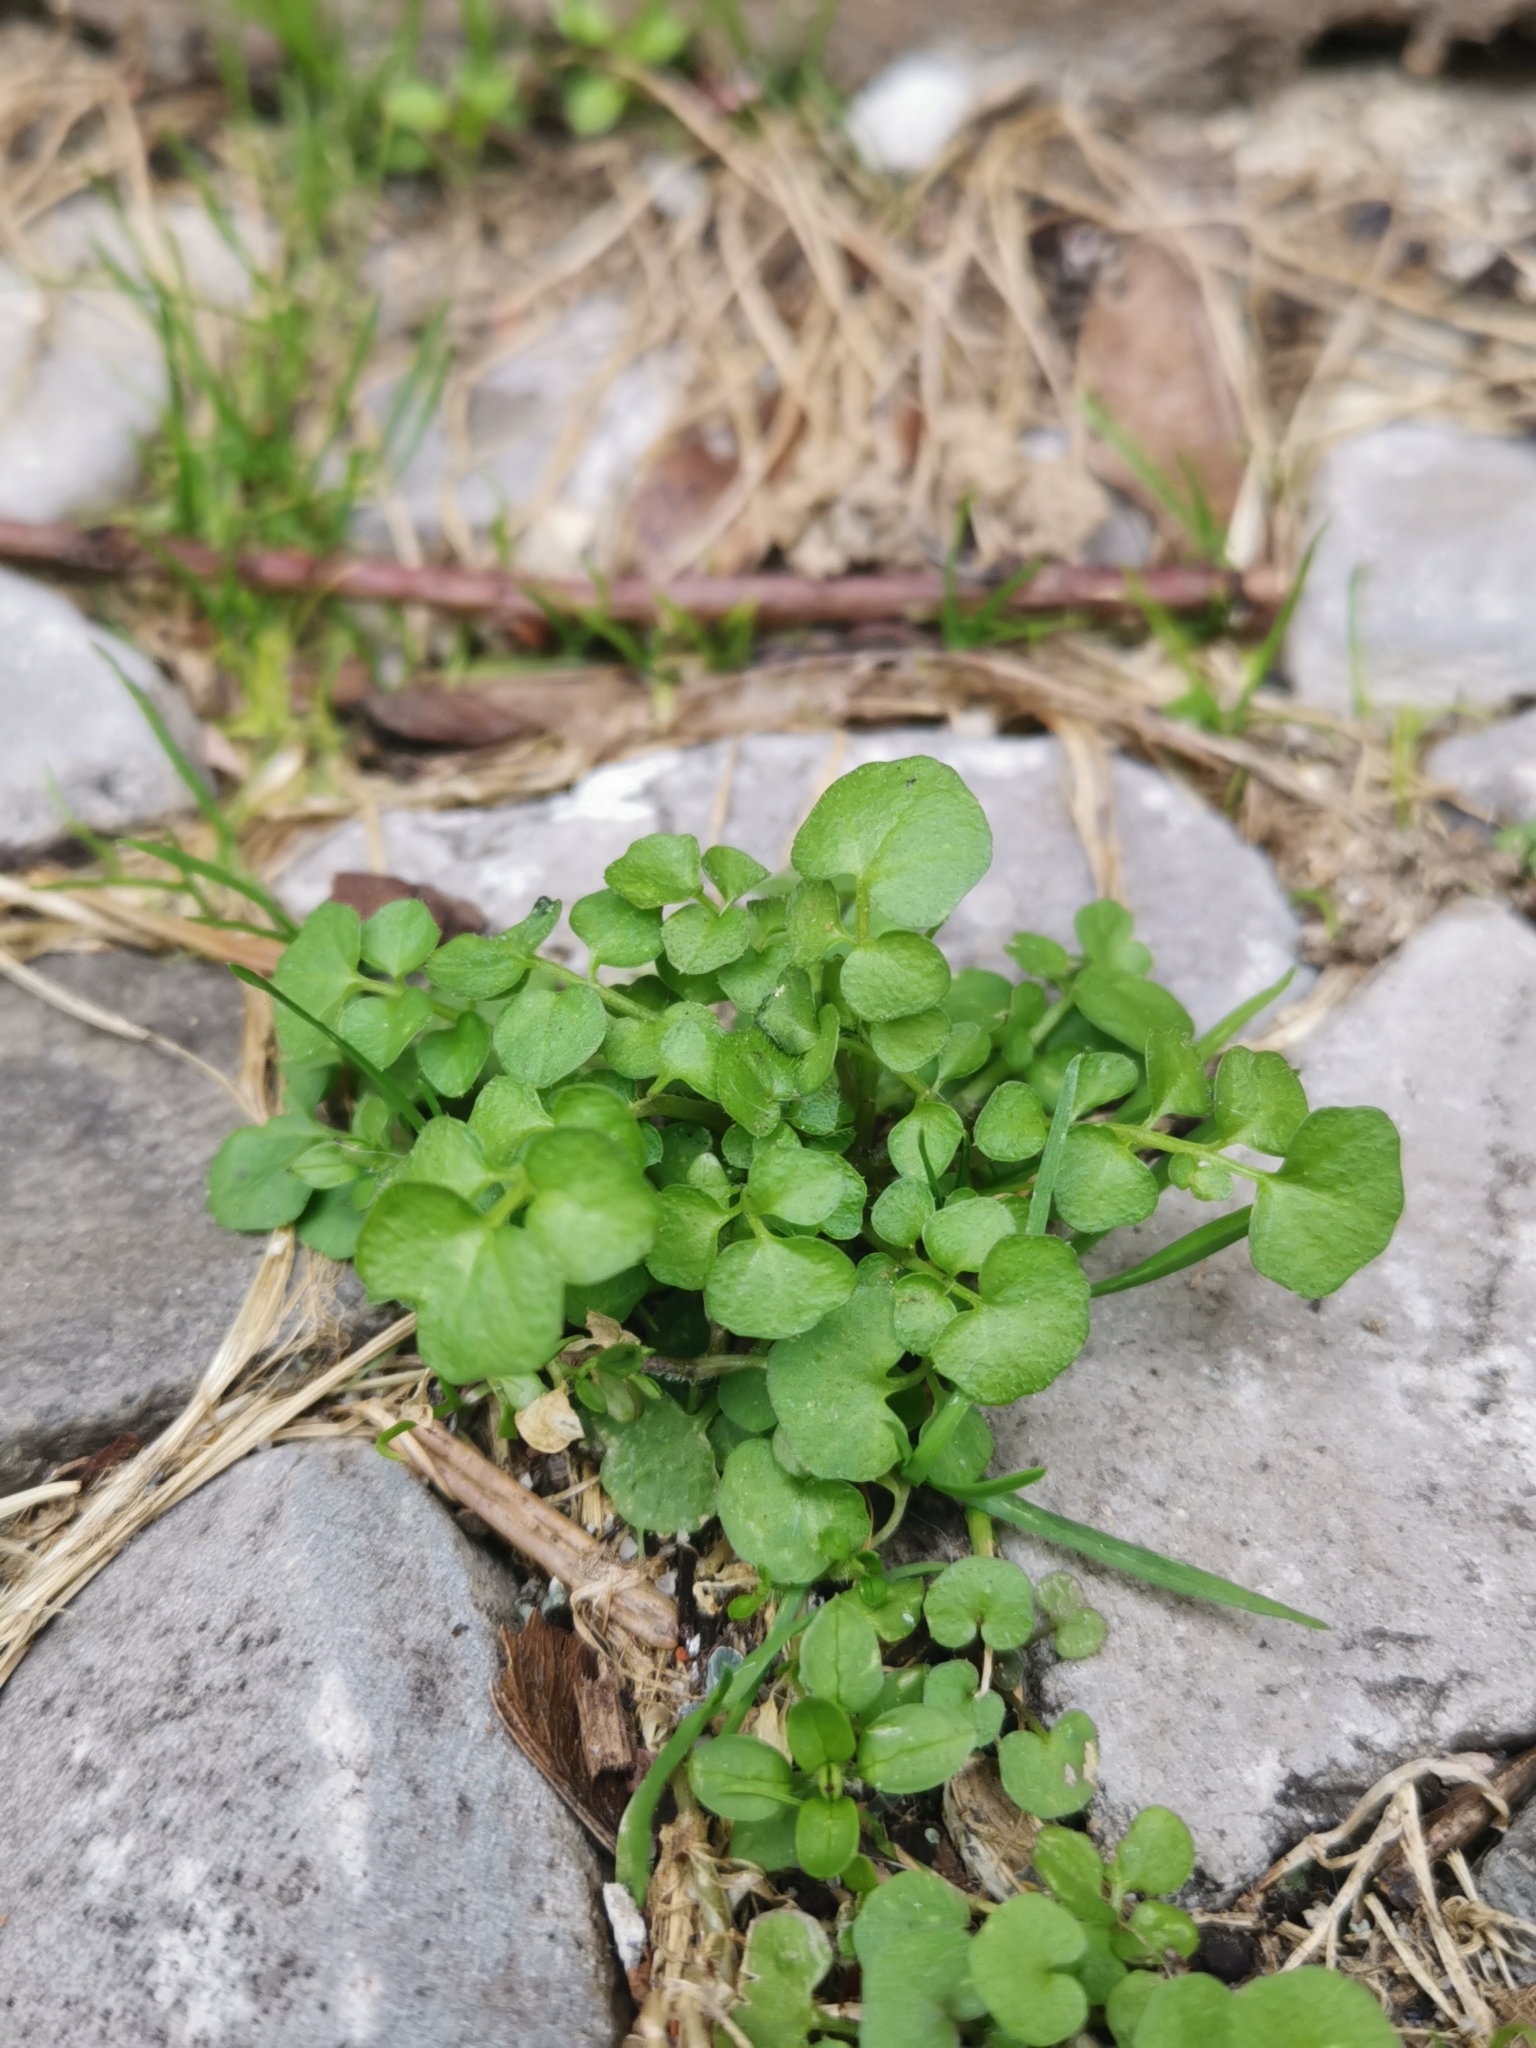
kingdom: Plantae
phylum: Tracheophyta
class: Magnoliopsida
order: Brassicales
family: Brassicaceae
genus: Cardamine
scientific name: Cardamine hirsuta
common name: Hairy bittercress
